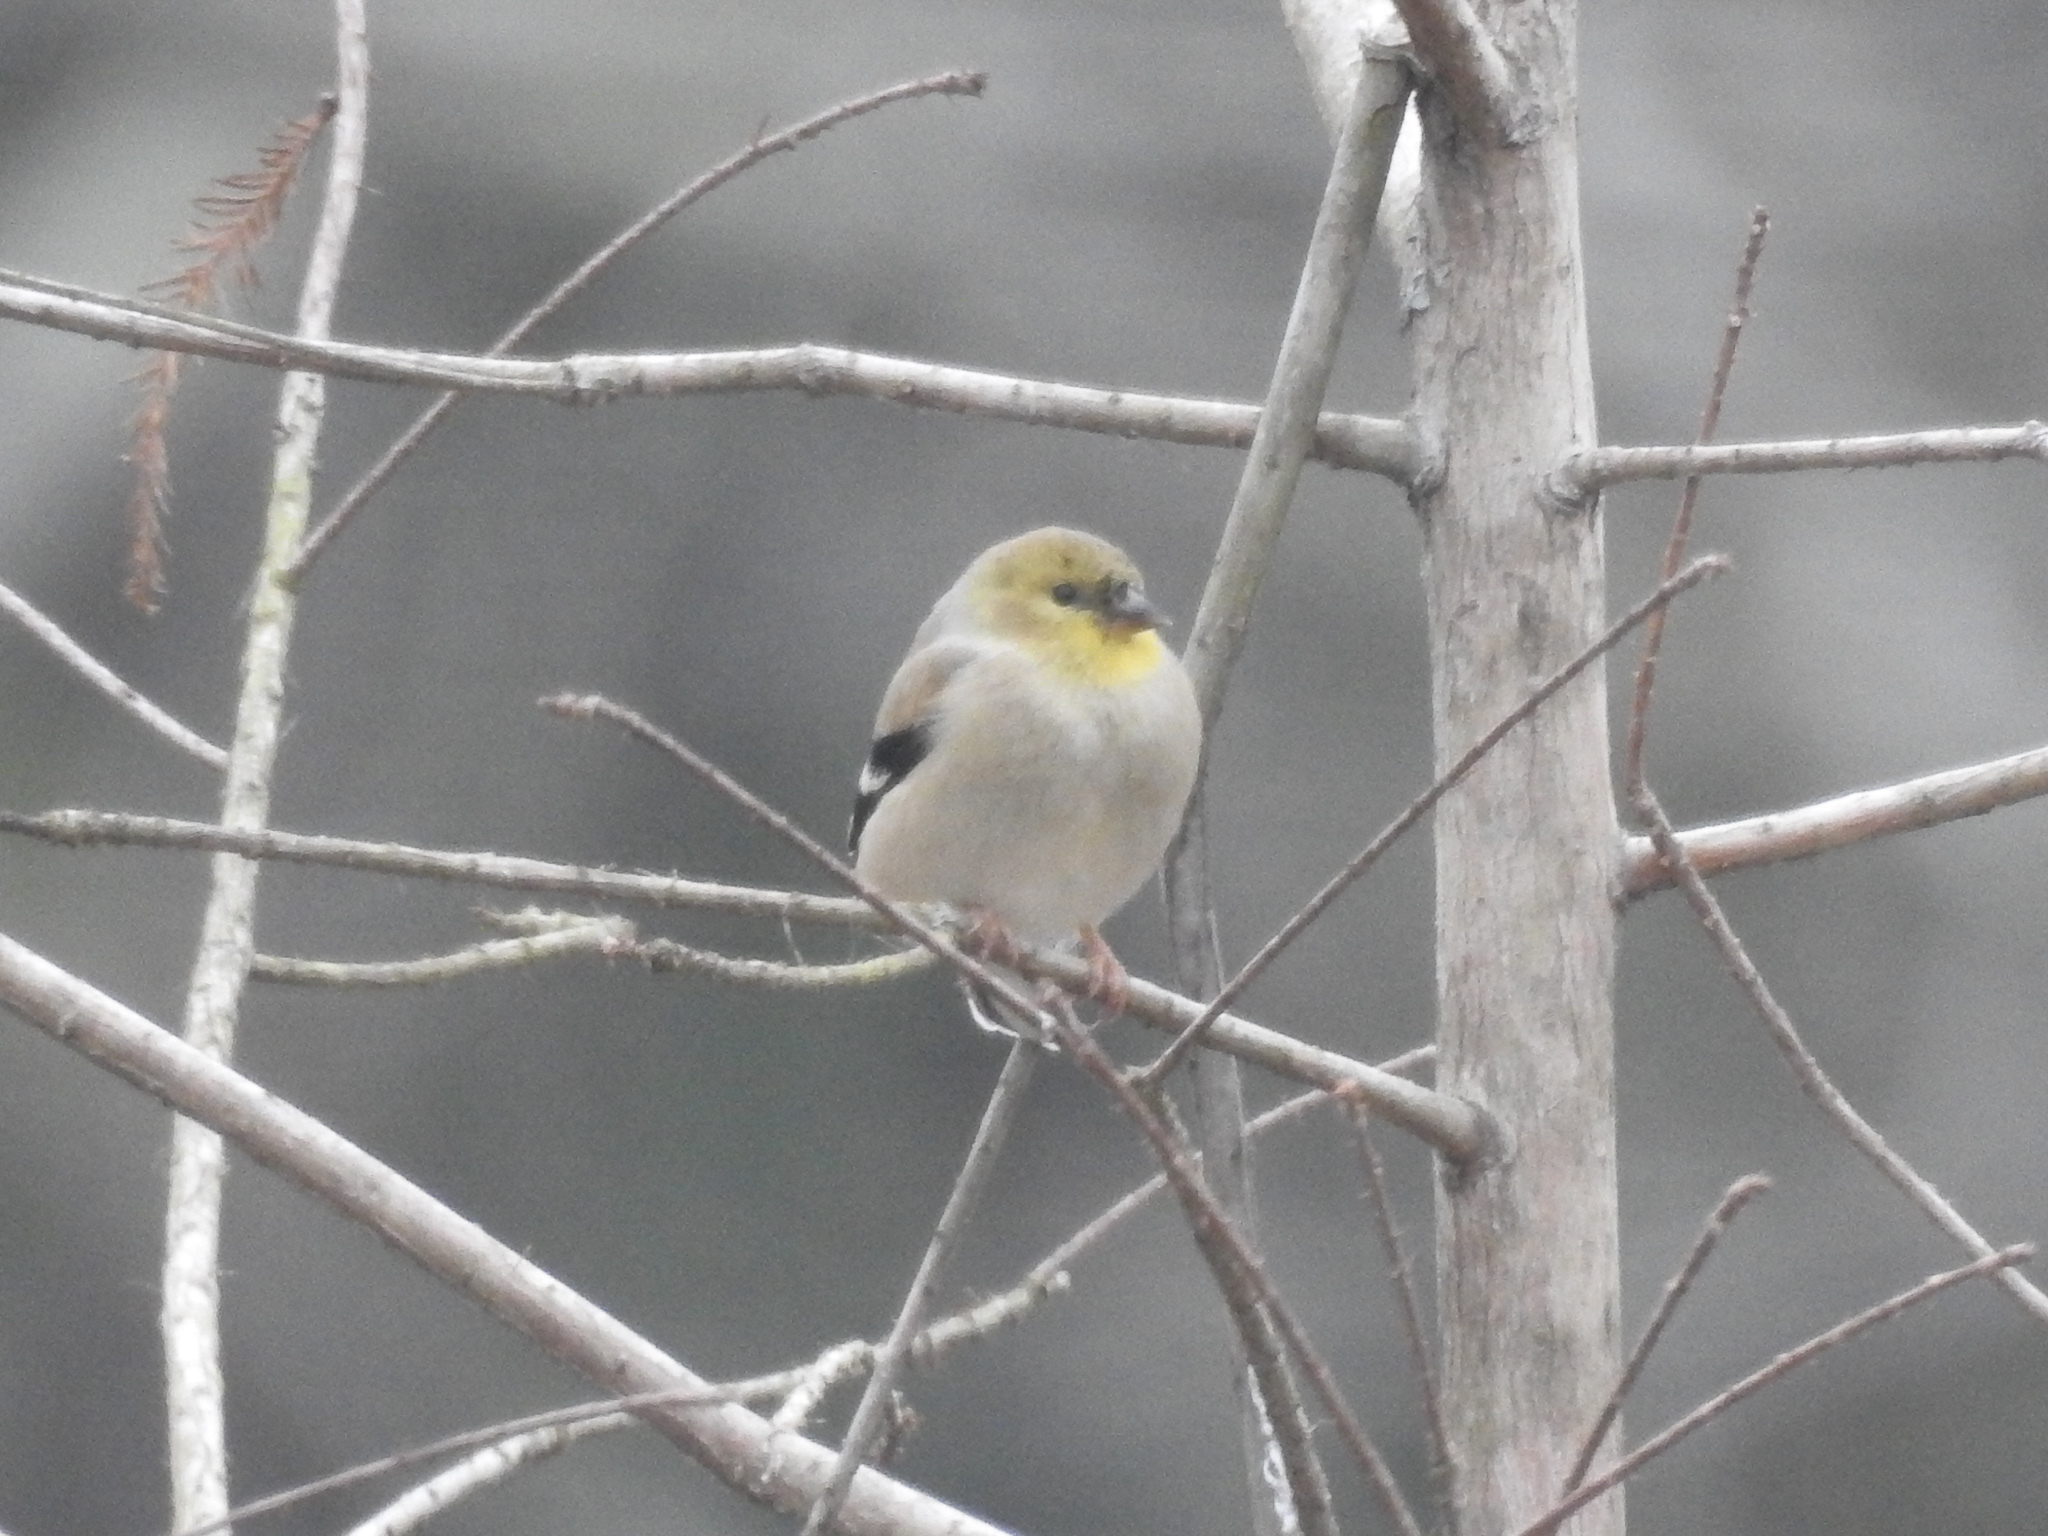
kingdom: Animalia
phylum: Chordata
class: Aves
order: Passeriformes
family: Fringillidae
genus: Spinus
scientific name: Spinus tristis
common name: American goldfinch
